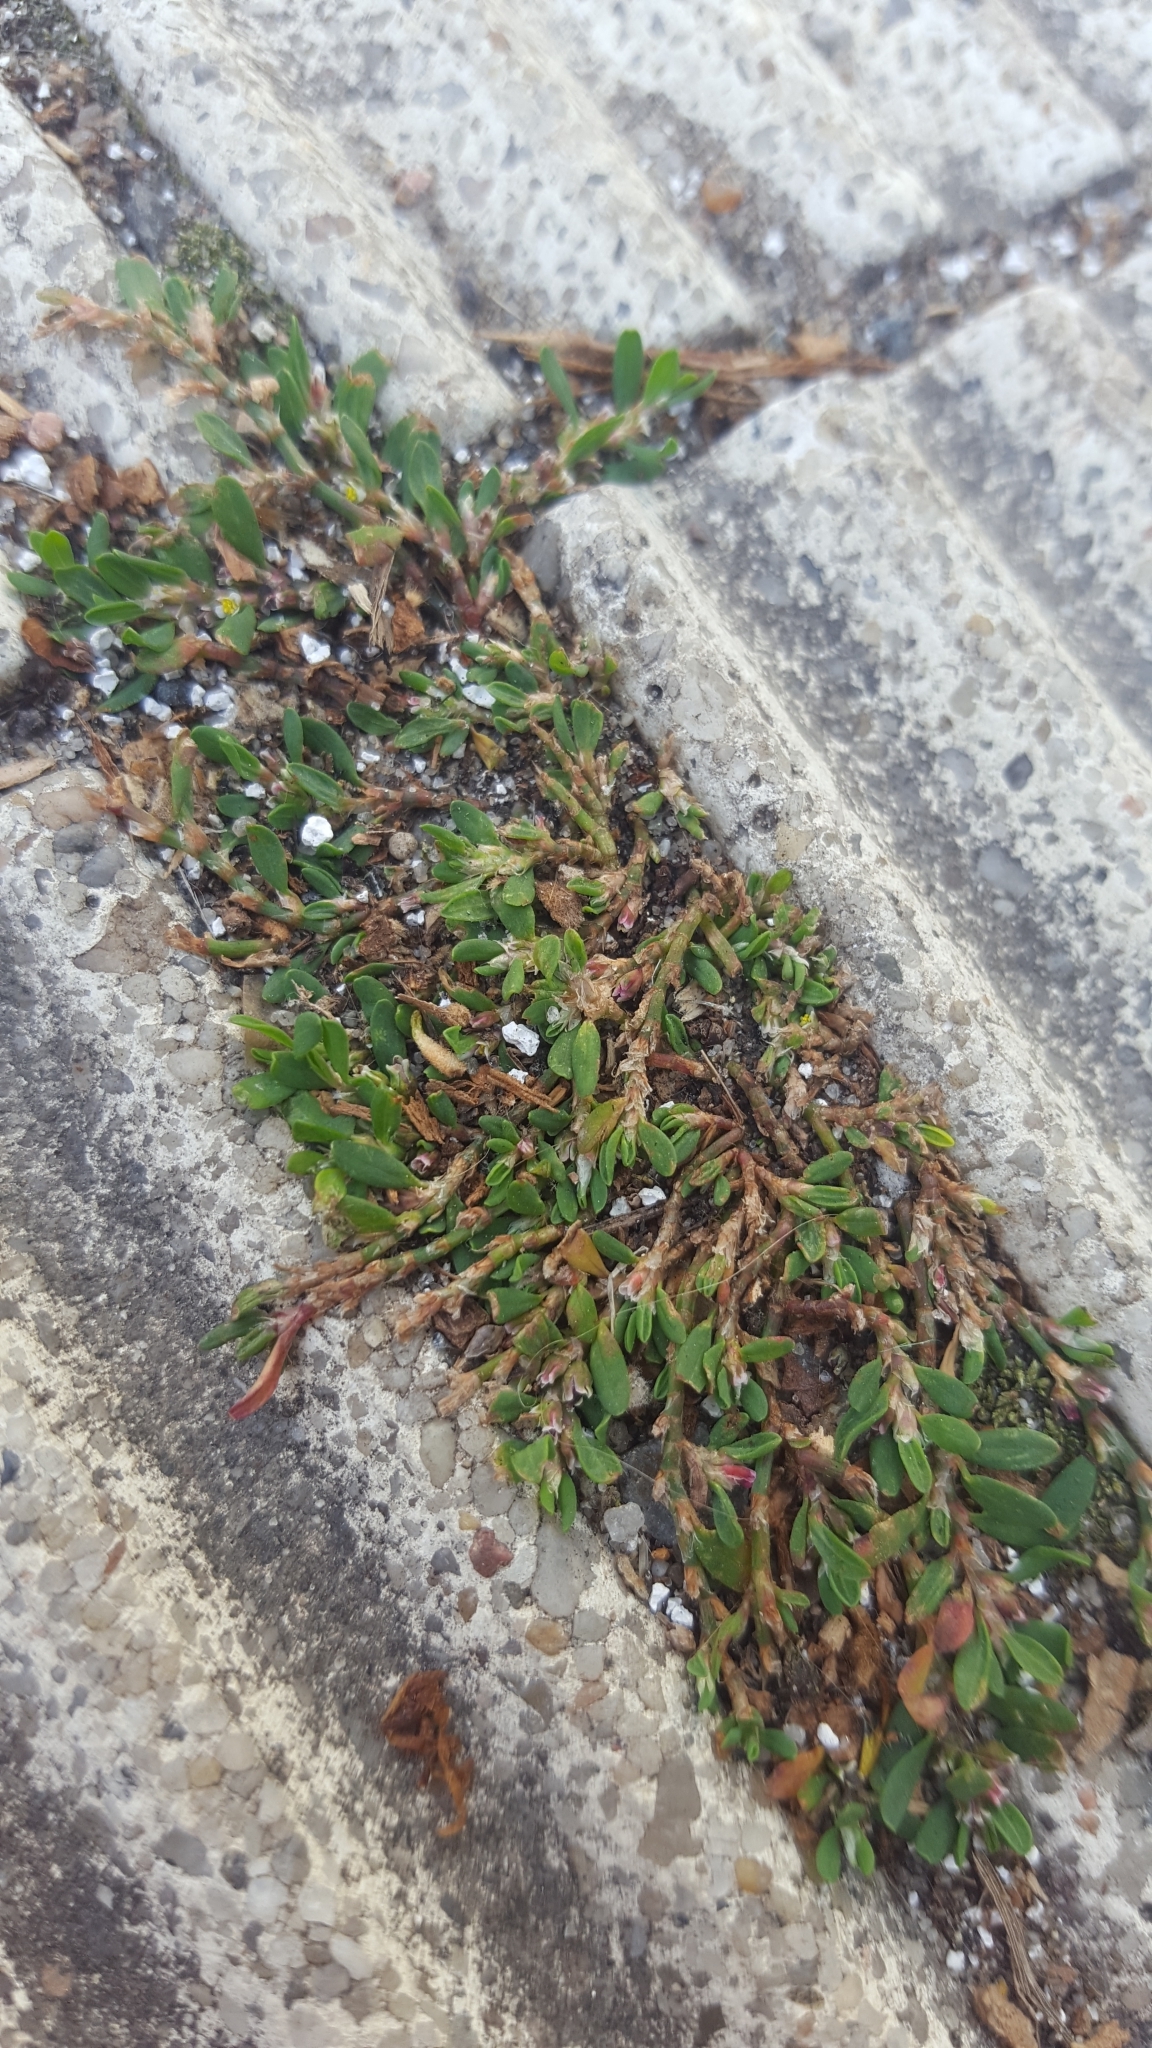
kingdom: Plantae
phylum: Tracheophyta
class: Magnoliopsida
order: Caryophyllales
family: Polygonaceae
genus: Polygonum
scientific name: Polygonum arenastrum
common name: Equal-leaved knotgrass
